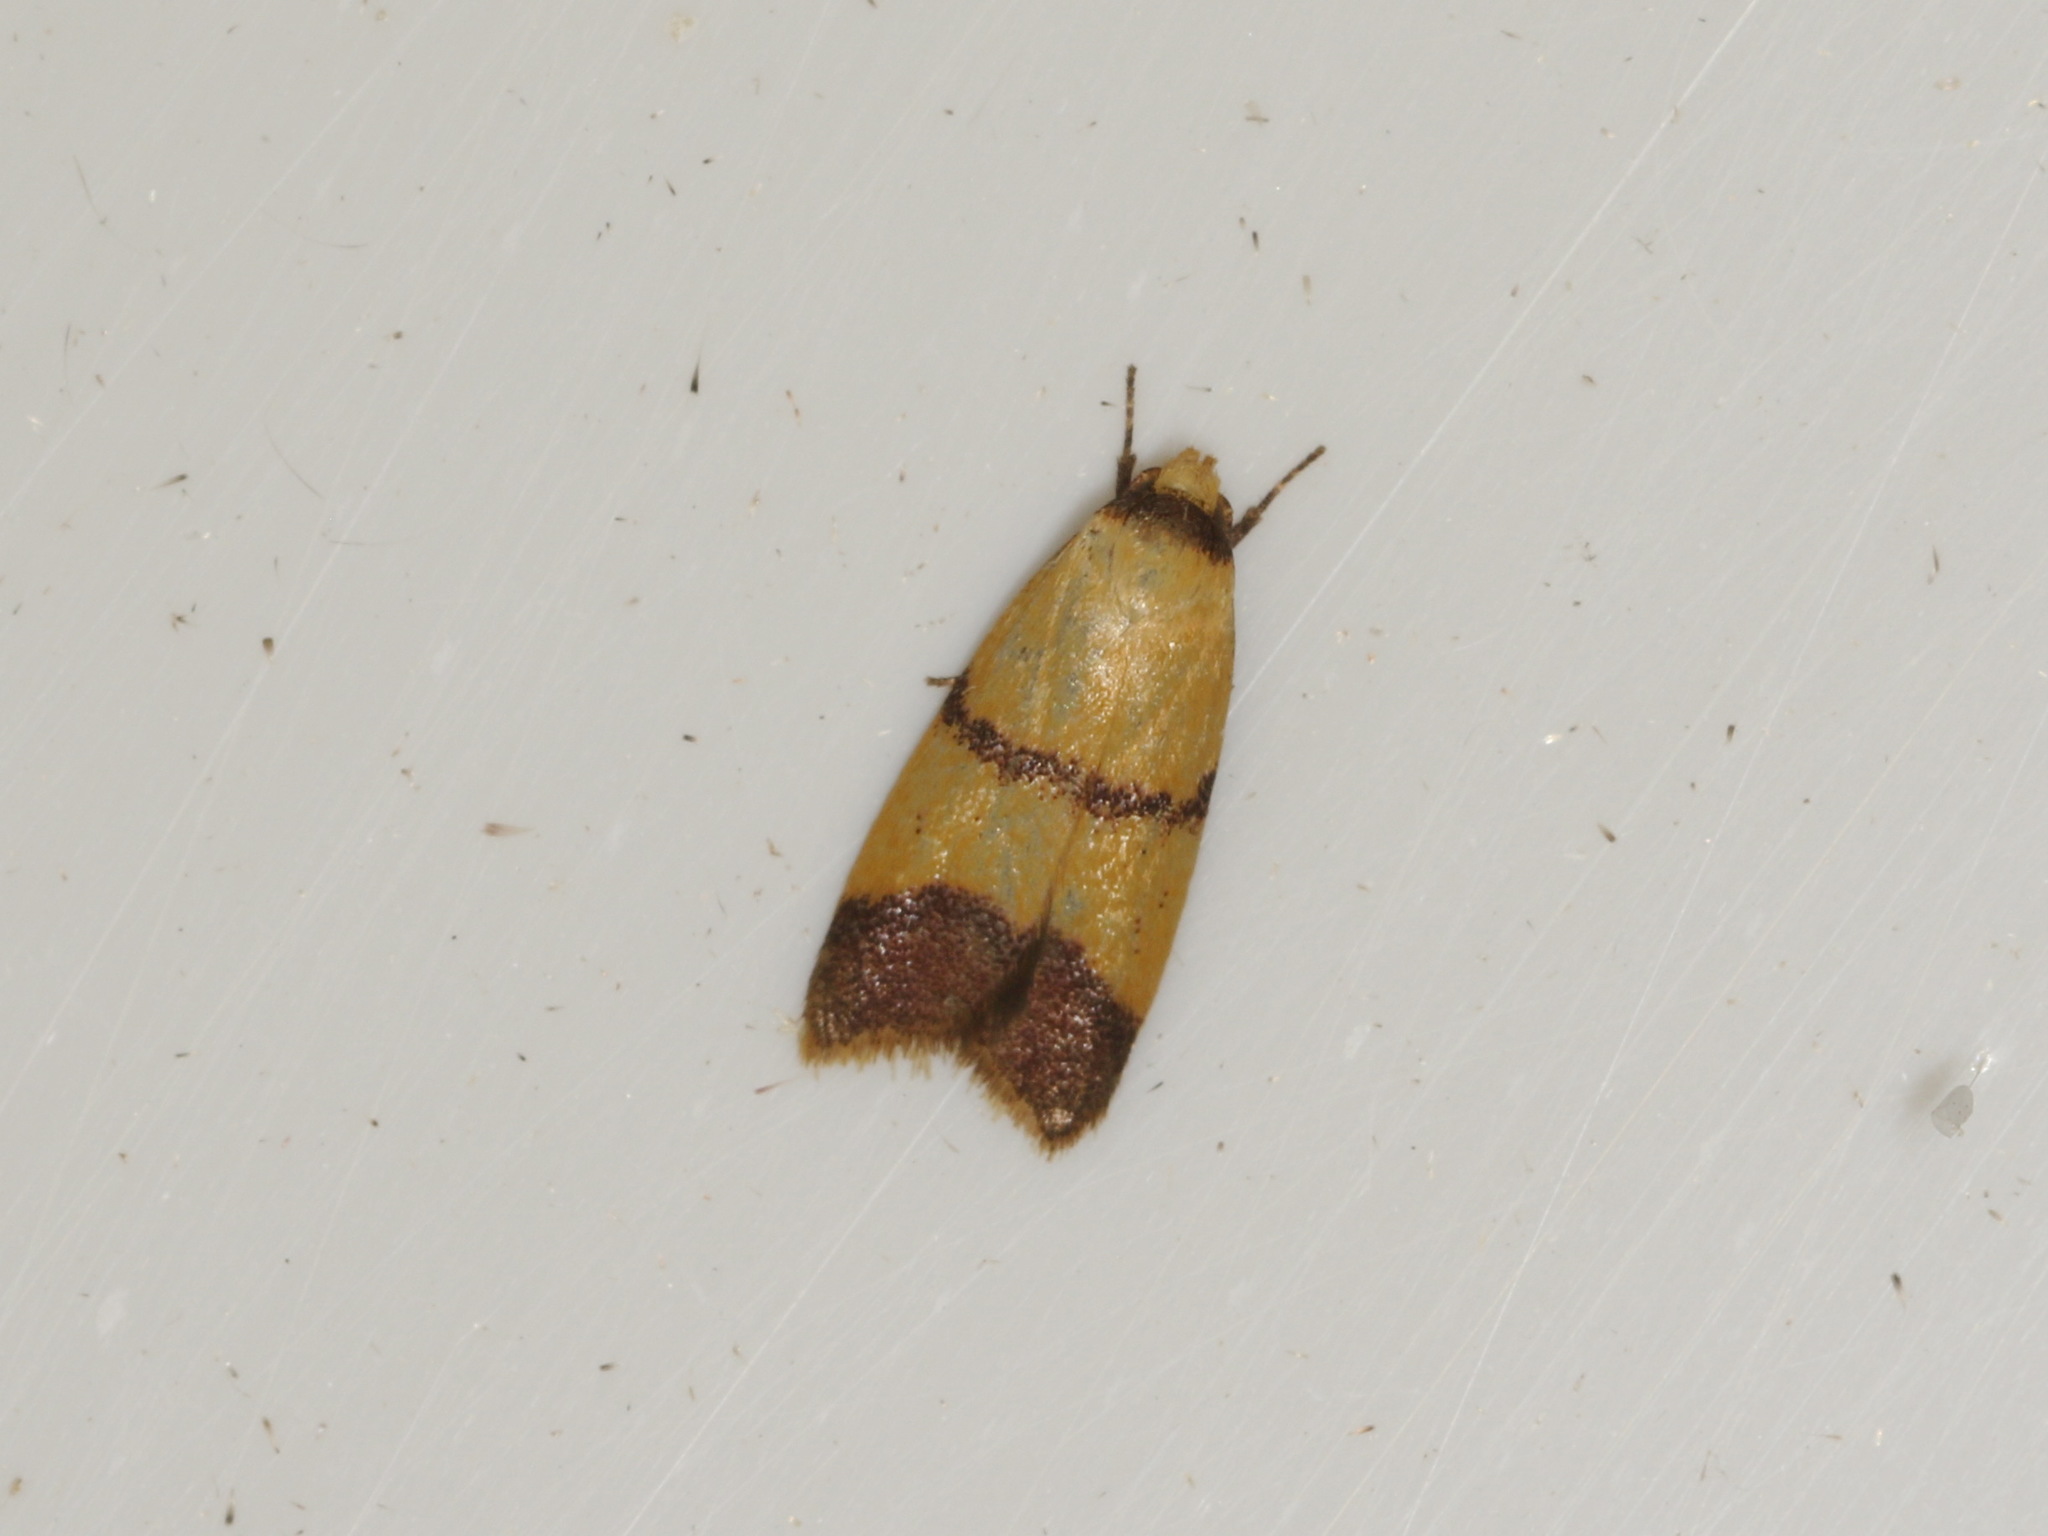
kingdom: Animalia
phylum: Arthropoda
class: Insecta
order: Lepidoptera
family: Oecophoridae
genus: Heteroteucha
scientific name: Heteroteucha translatella
